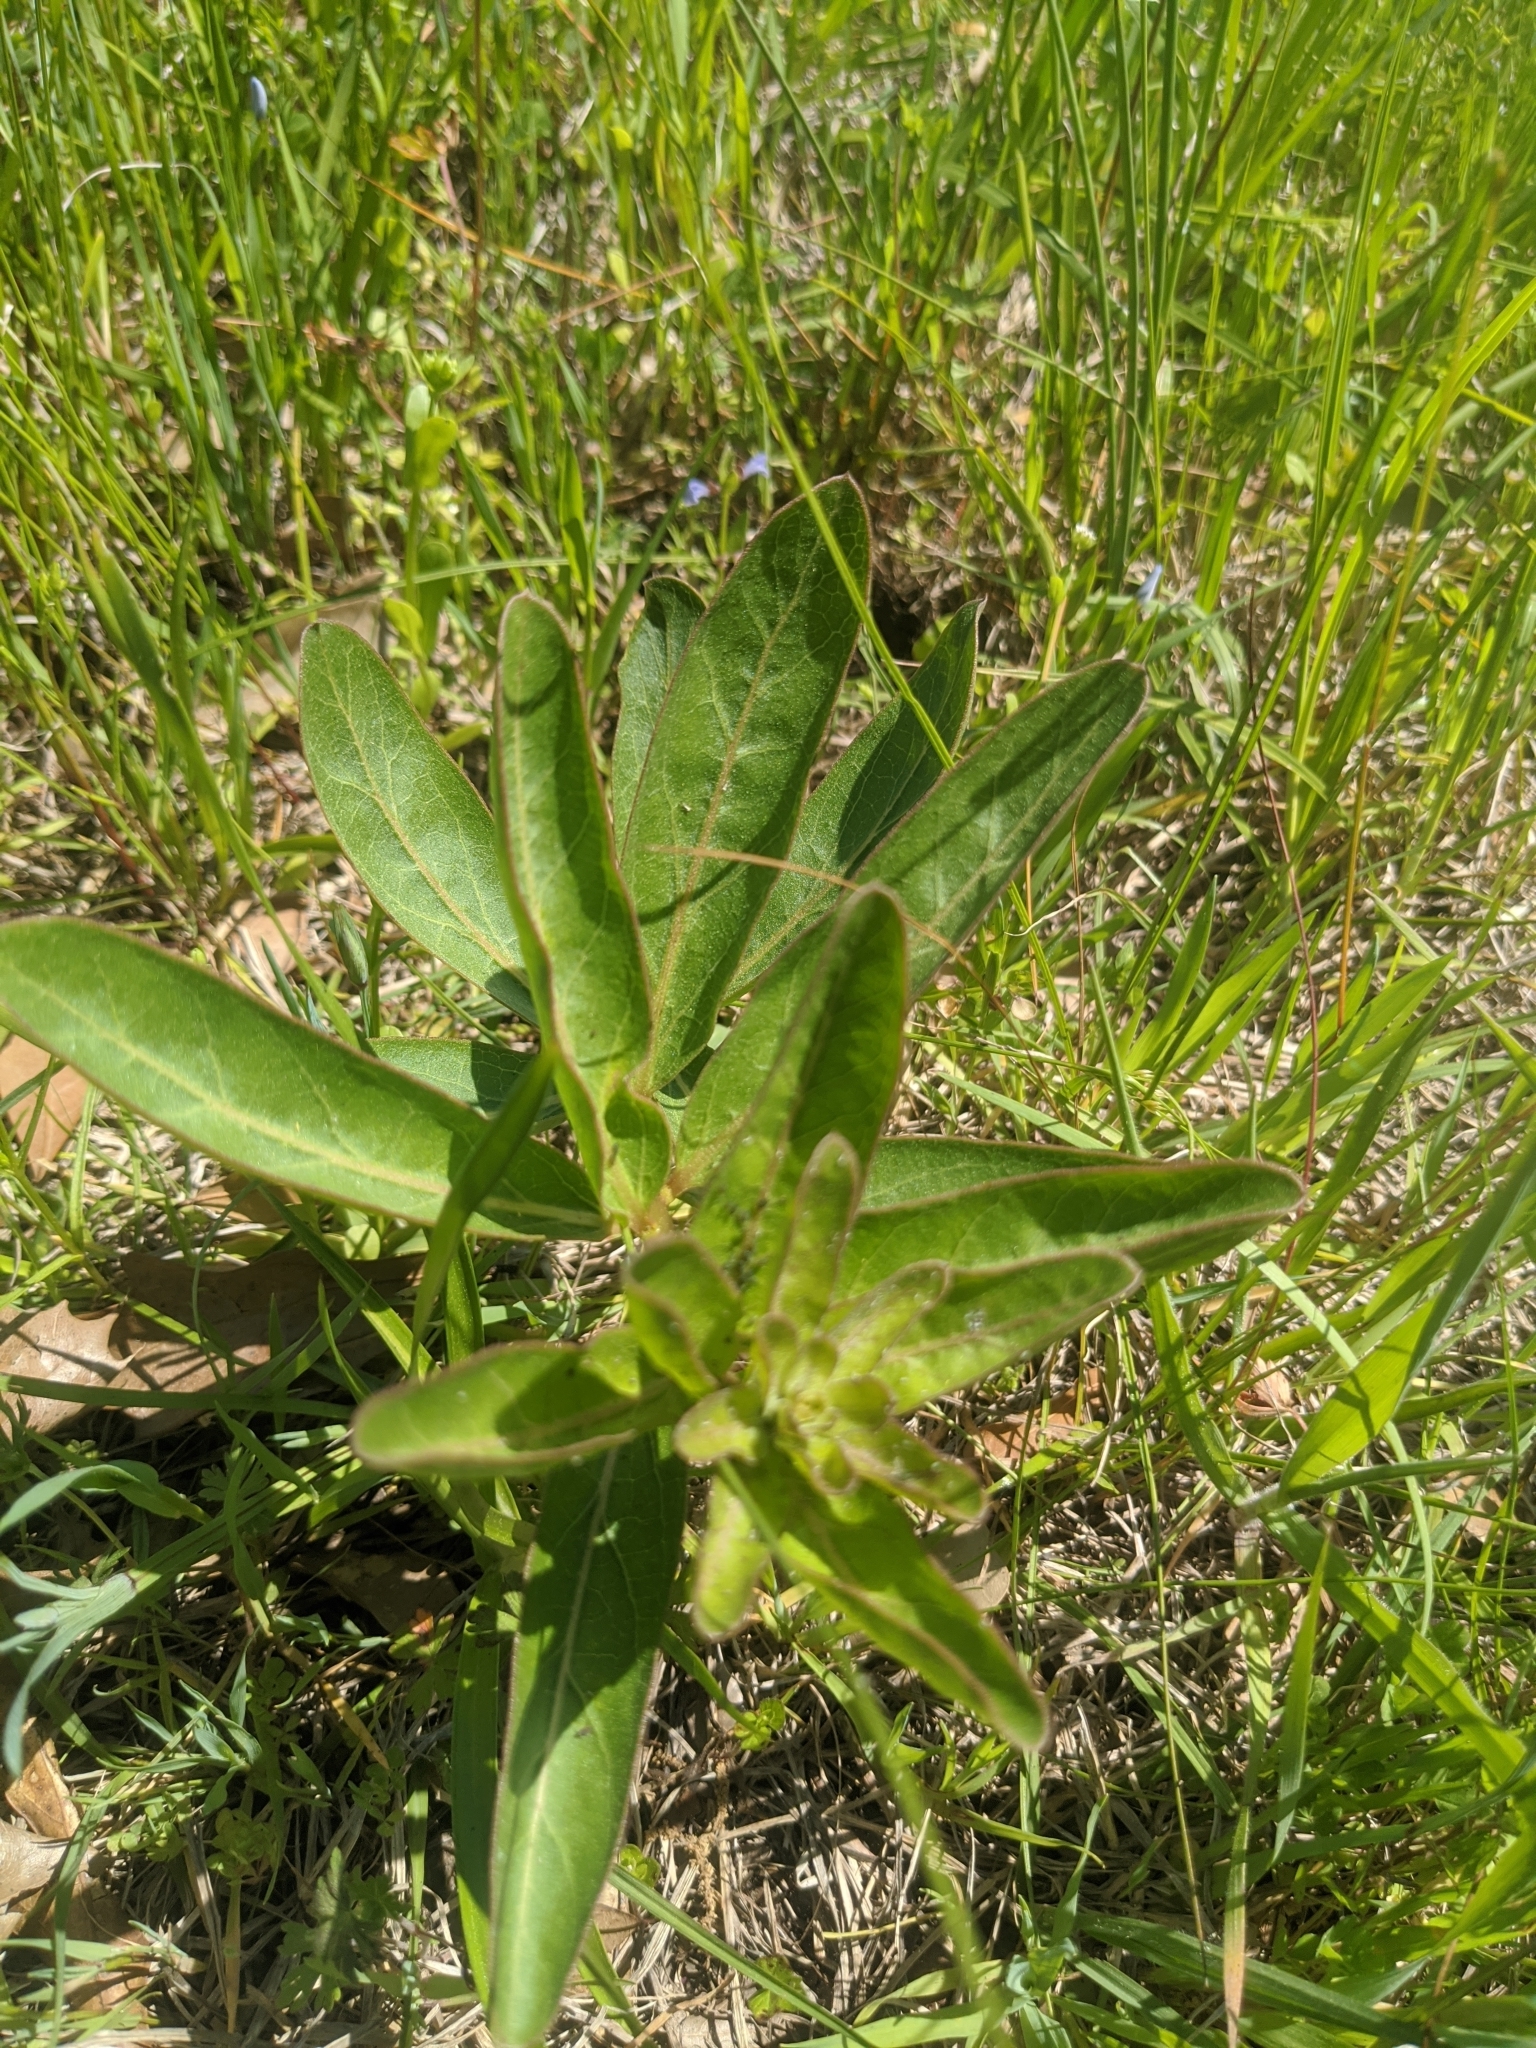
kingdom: Plantae
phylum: Tracheophyta
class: Magnoliopsida
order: Gentianales
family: Apocynaceae
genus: Asclepias
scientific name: Asclepias viridis
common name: Antelope-horns
